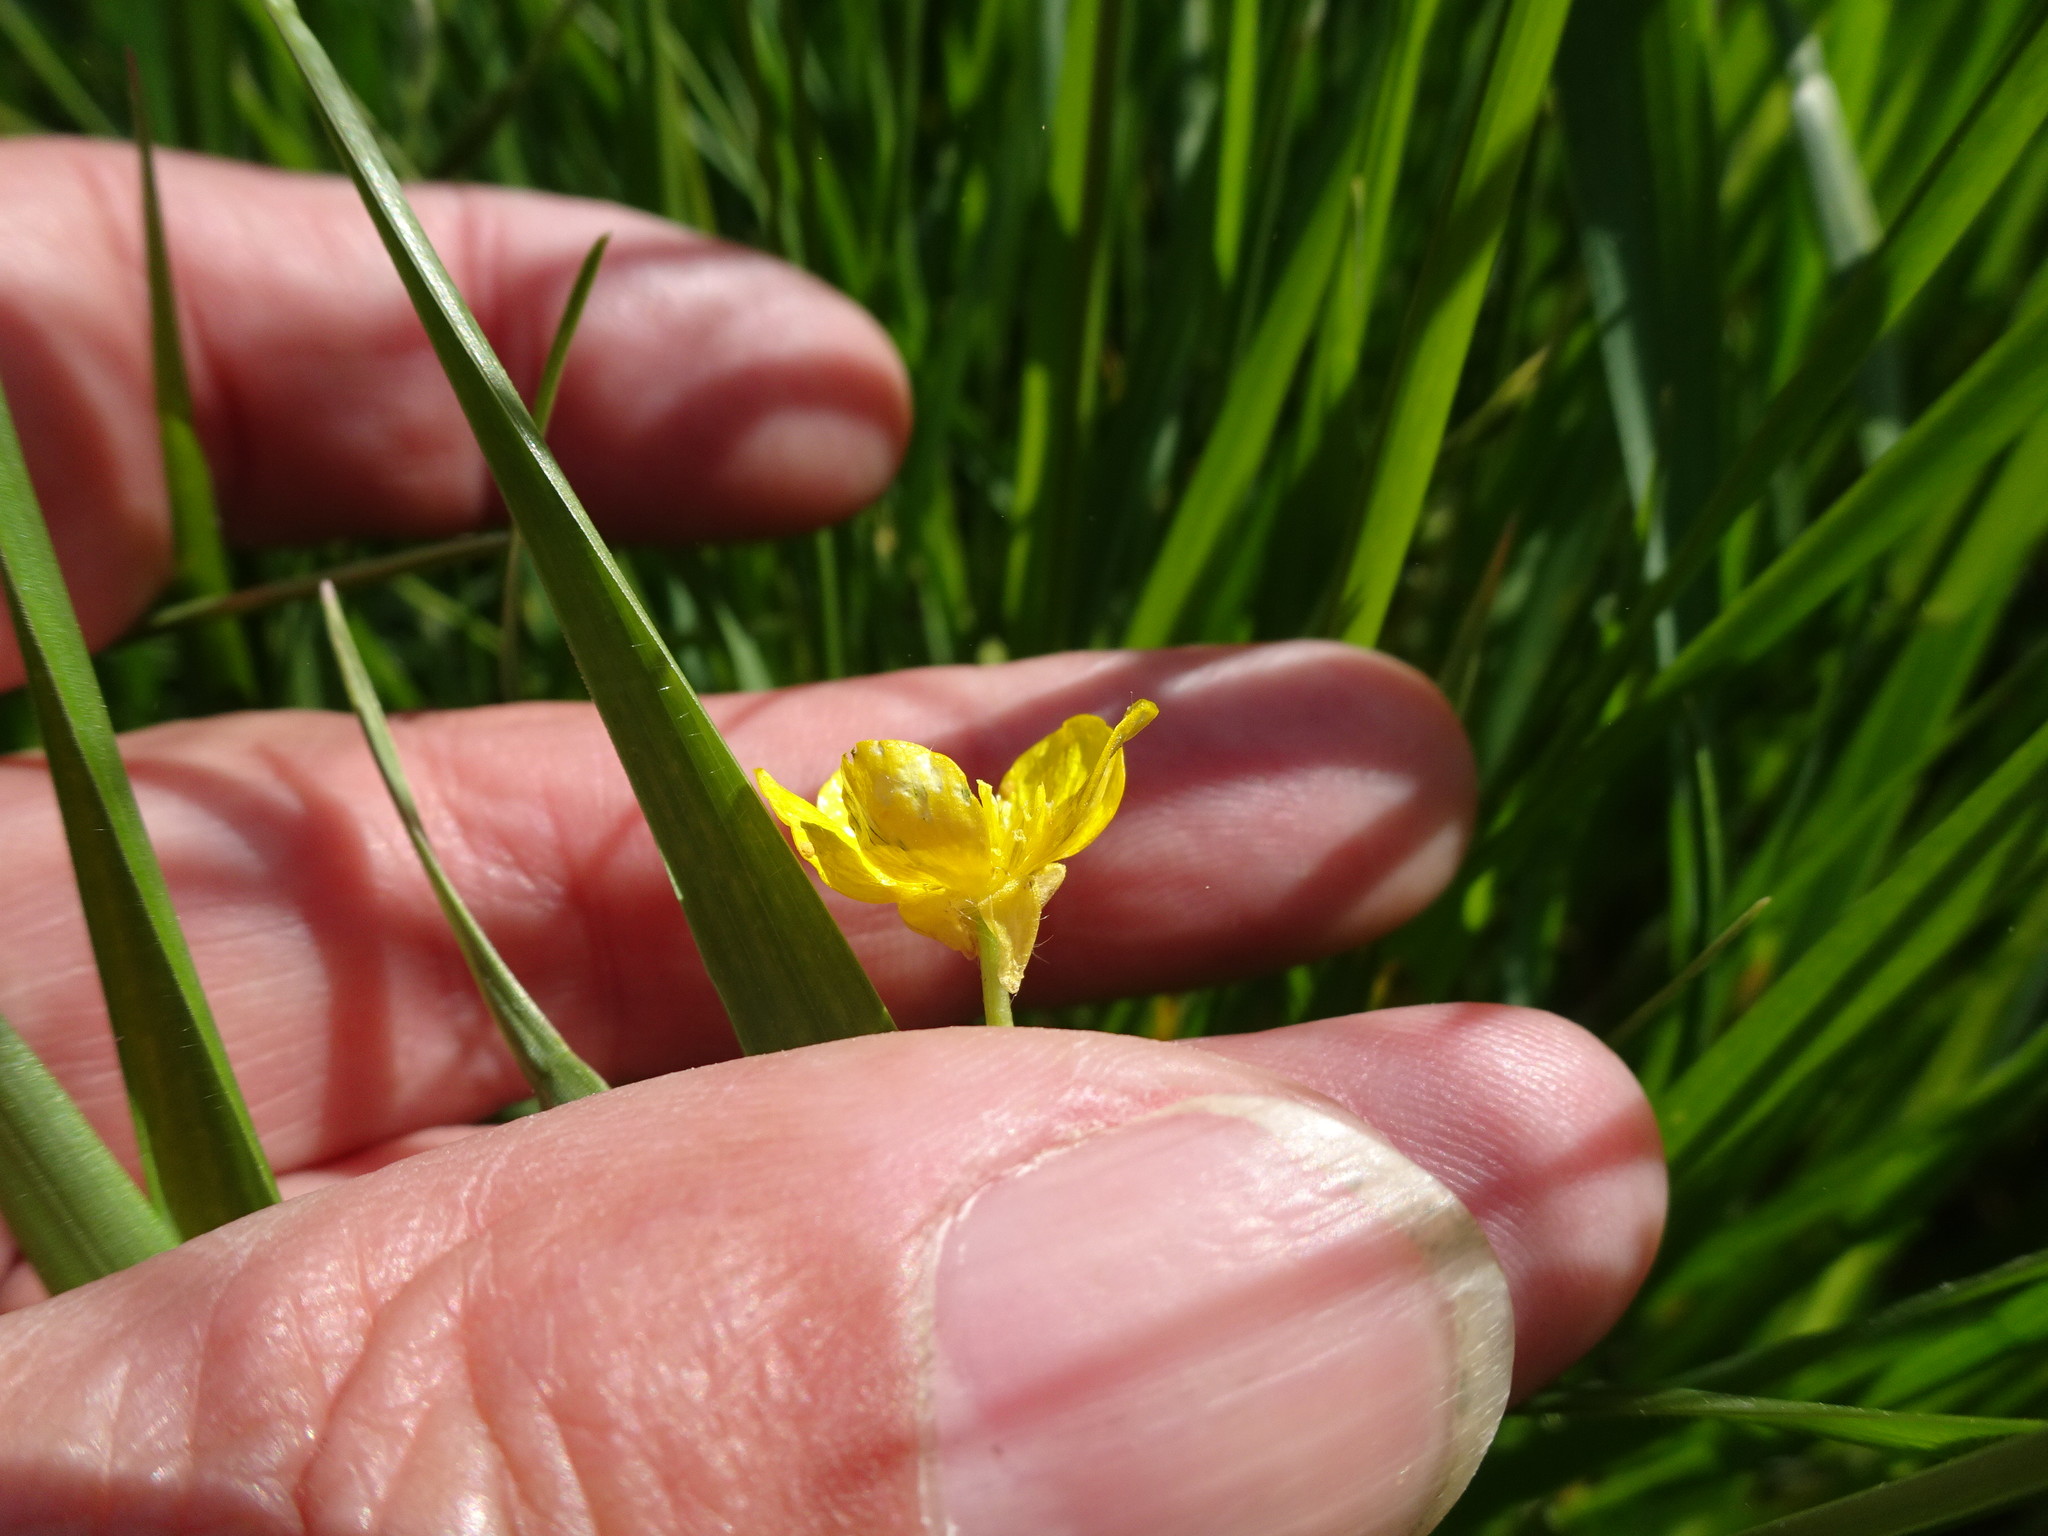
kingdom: Plantae
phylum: Tracheophyta
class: Magnoliopsida
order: Ranunculales
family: Ranunculaceae
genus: Ranunculus
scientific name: Ranunculus bulbosus
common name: Bulbous buttercup
